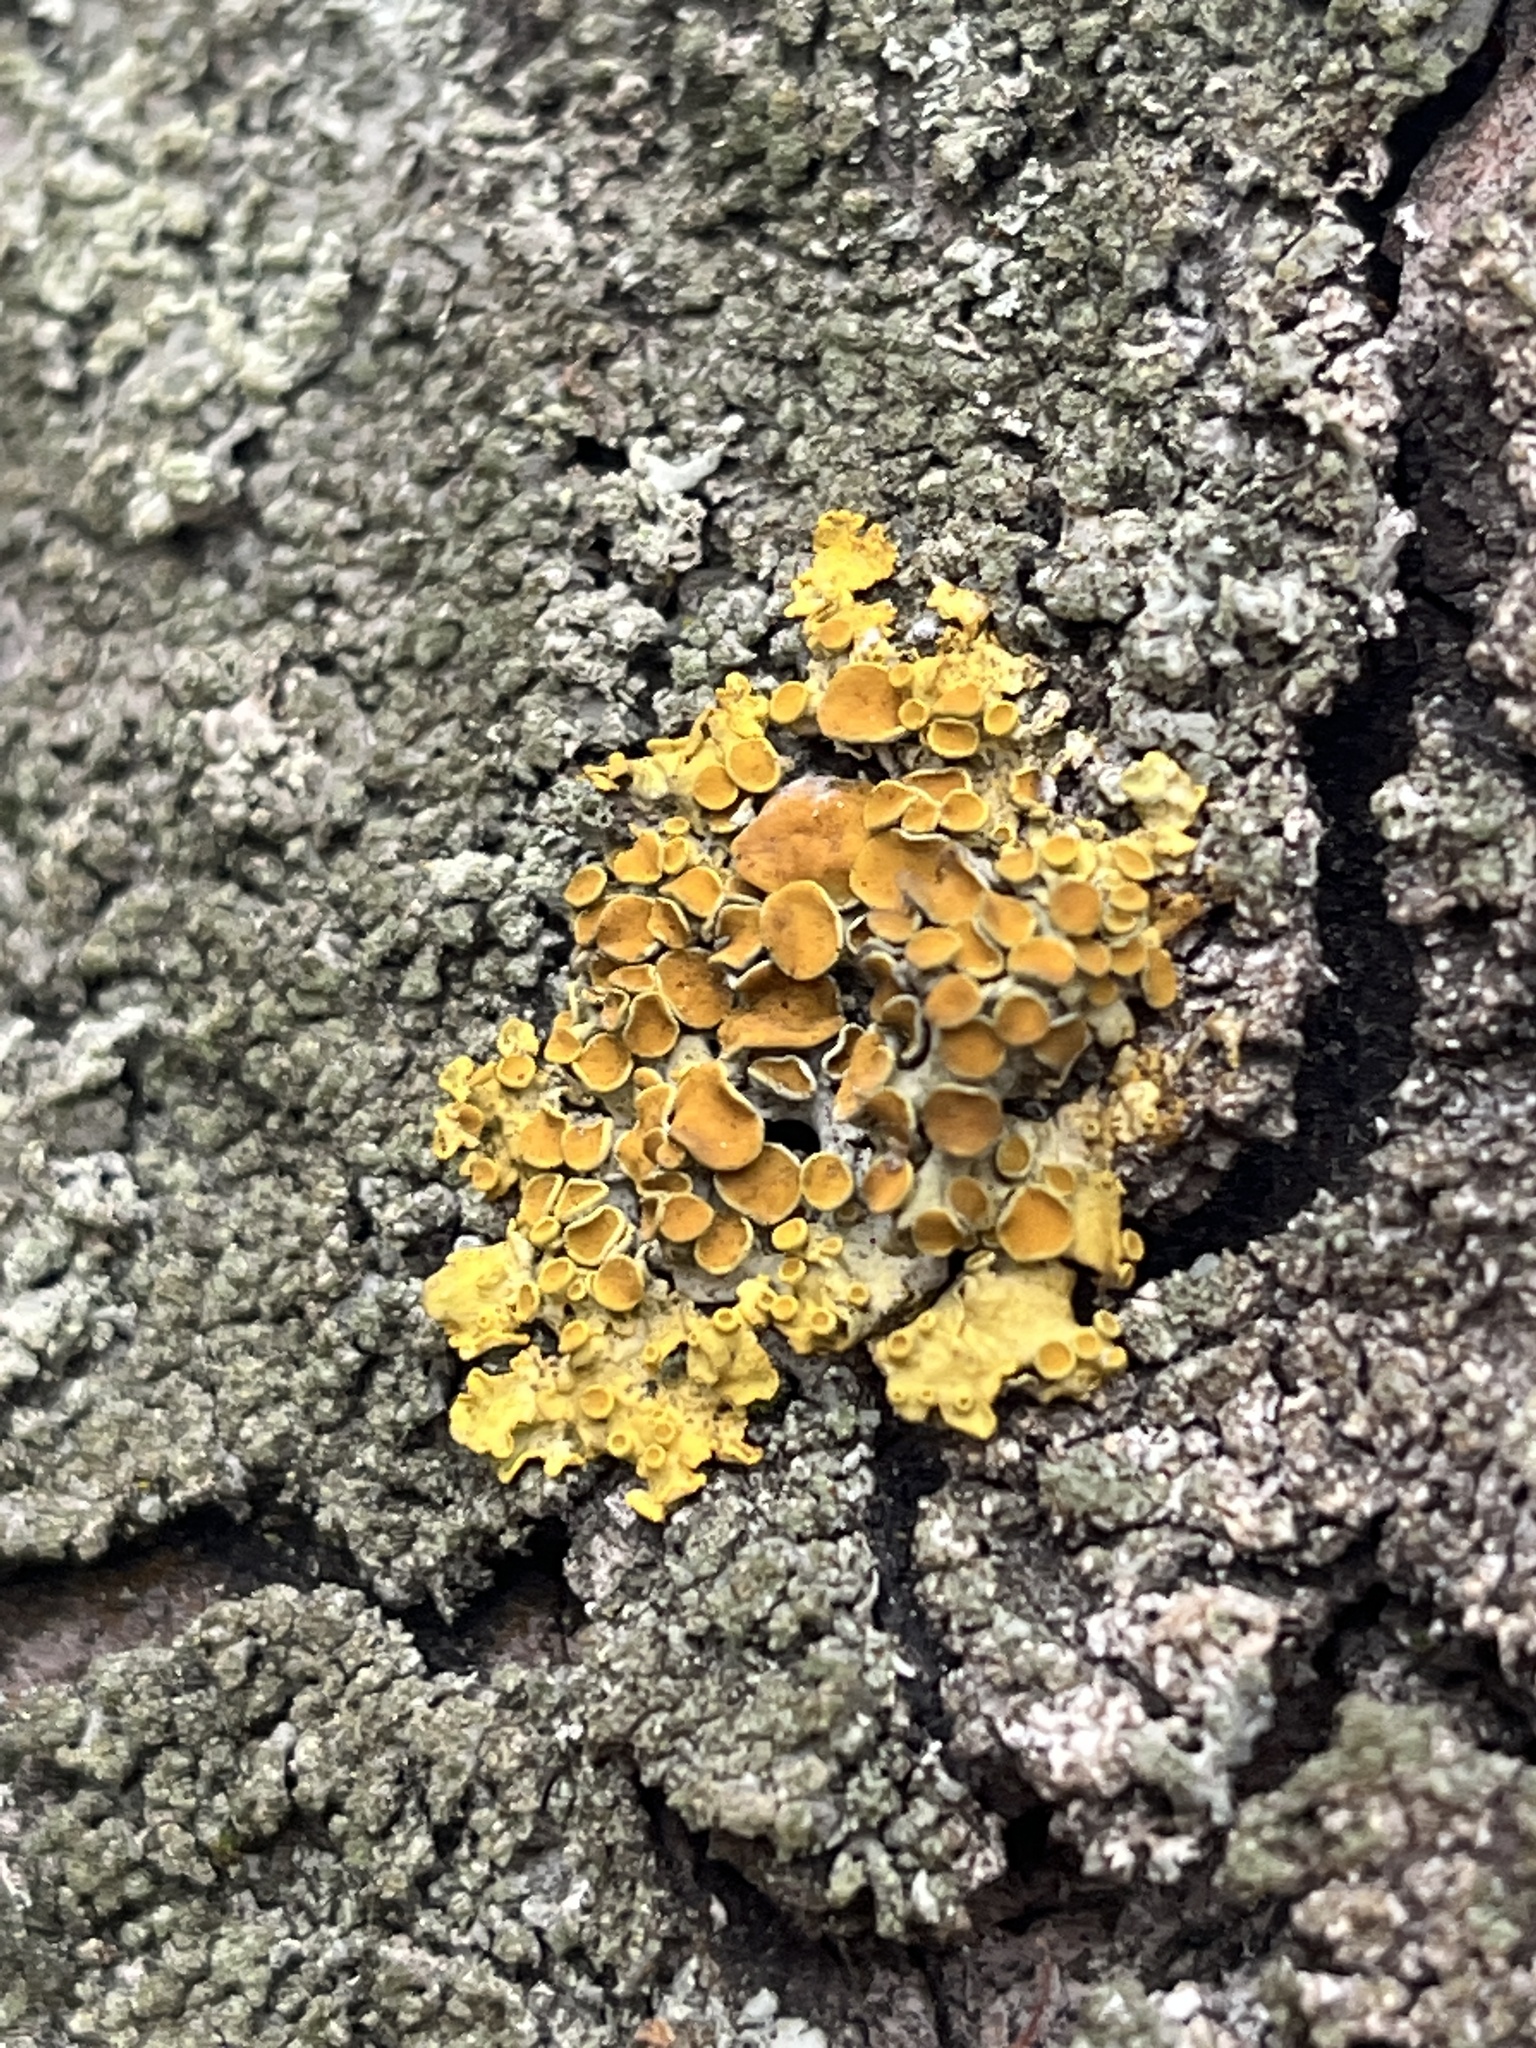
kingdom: Fungi
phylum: Ascomycota
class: Lecanoromycetes
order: Teloschistales
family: Teloschistaceae
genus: Xanthoria
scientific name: Xanthoria parietina
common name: Common orange lichen
